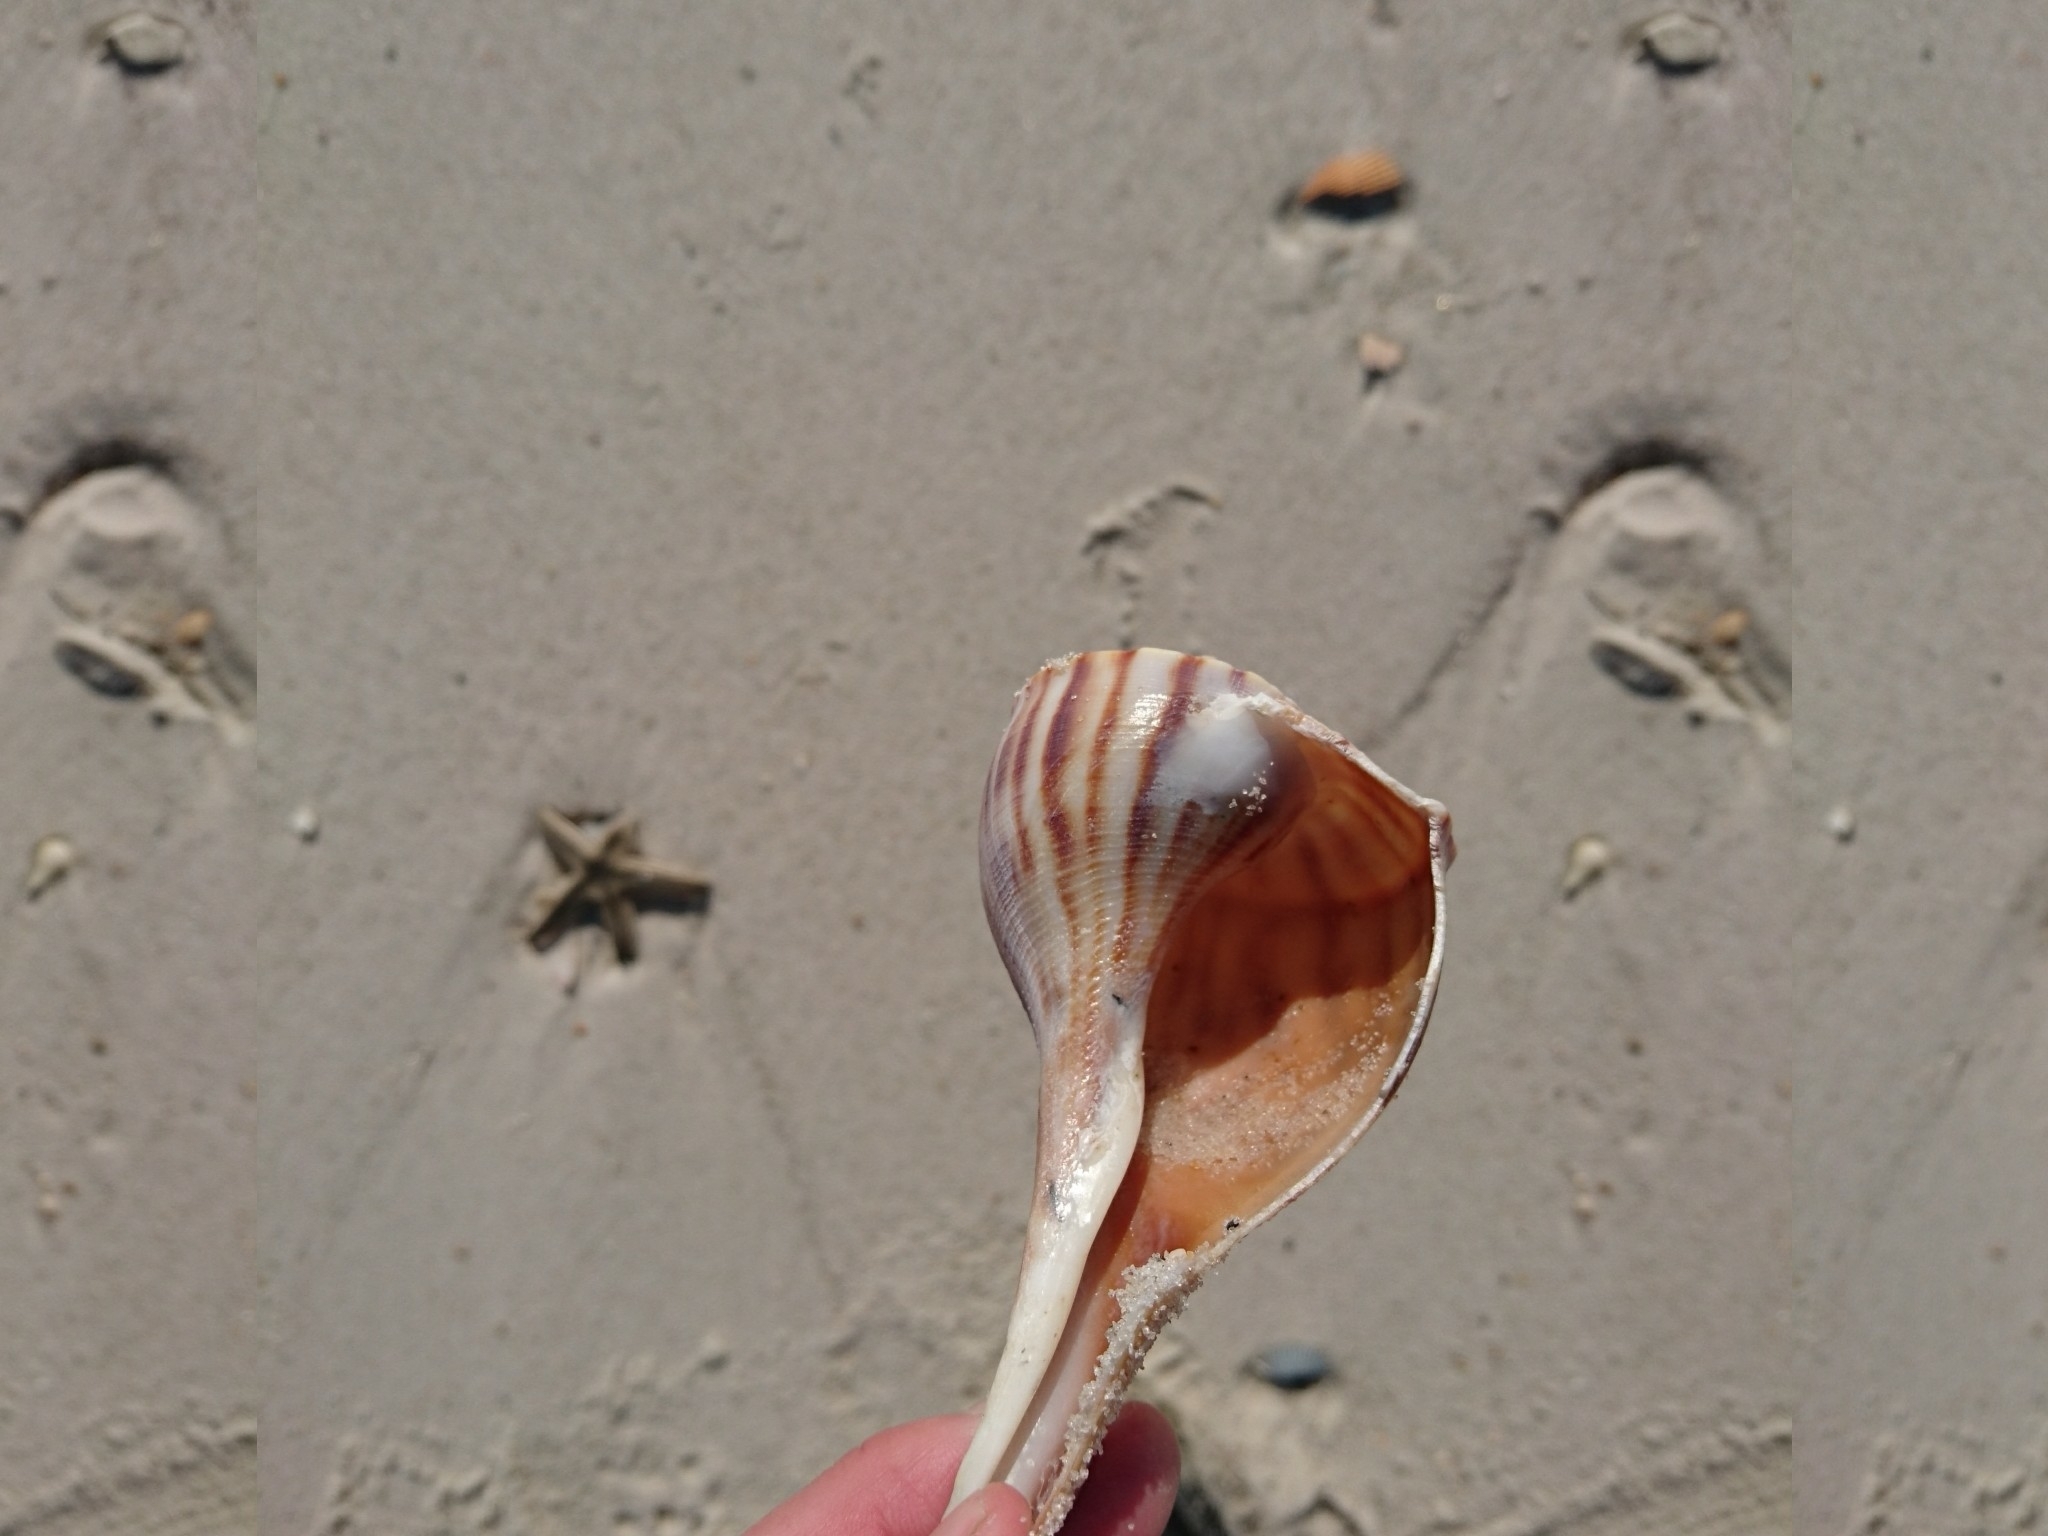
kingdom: Animalia
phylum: Mollusca
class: Gastropoda
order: Neogastropoda
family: Busyconidae
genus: Fulguropsis
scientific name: Fulguropsis plagosa
